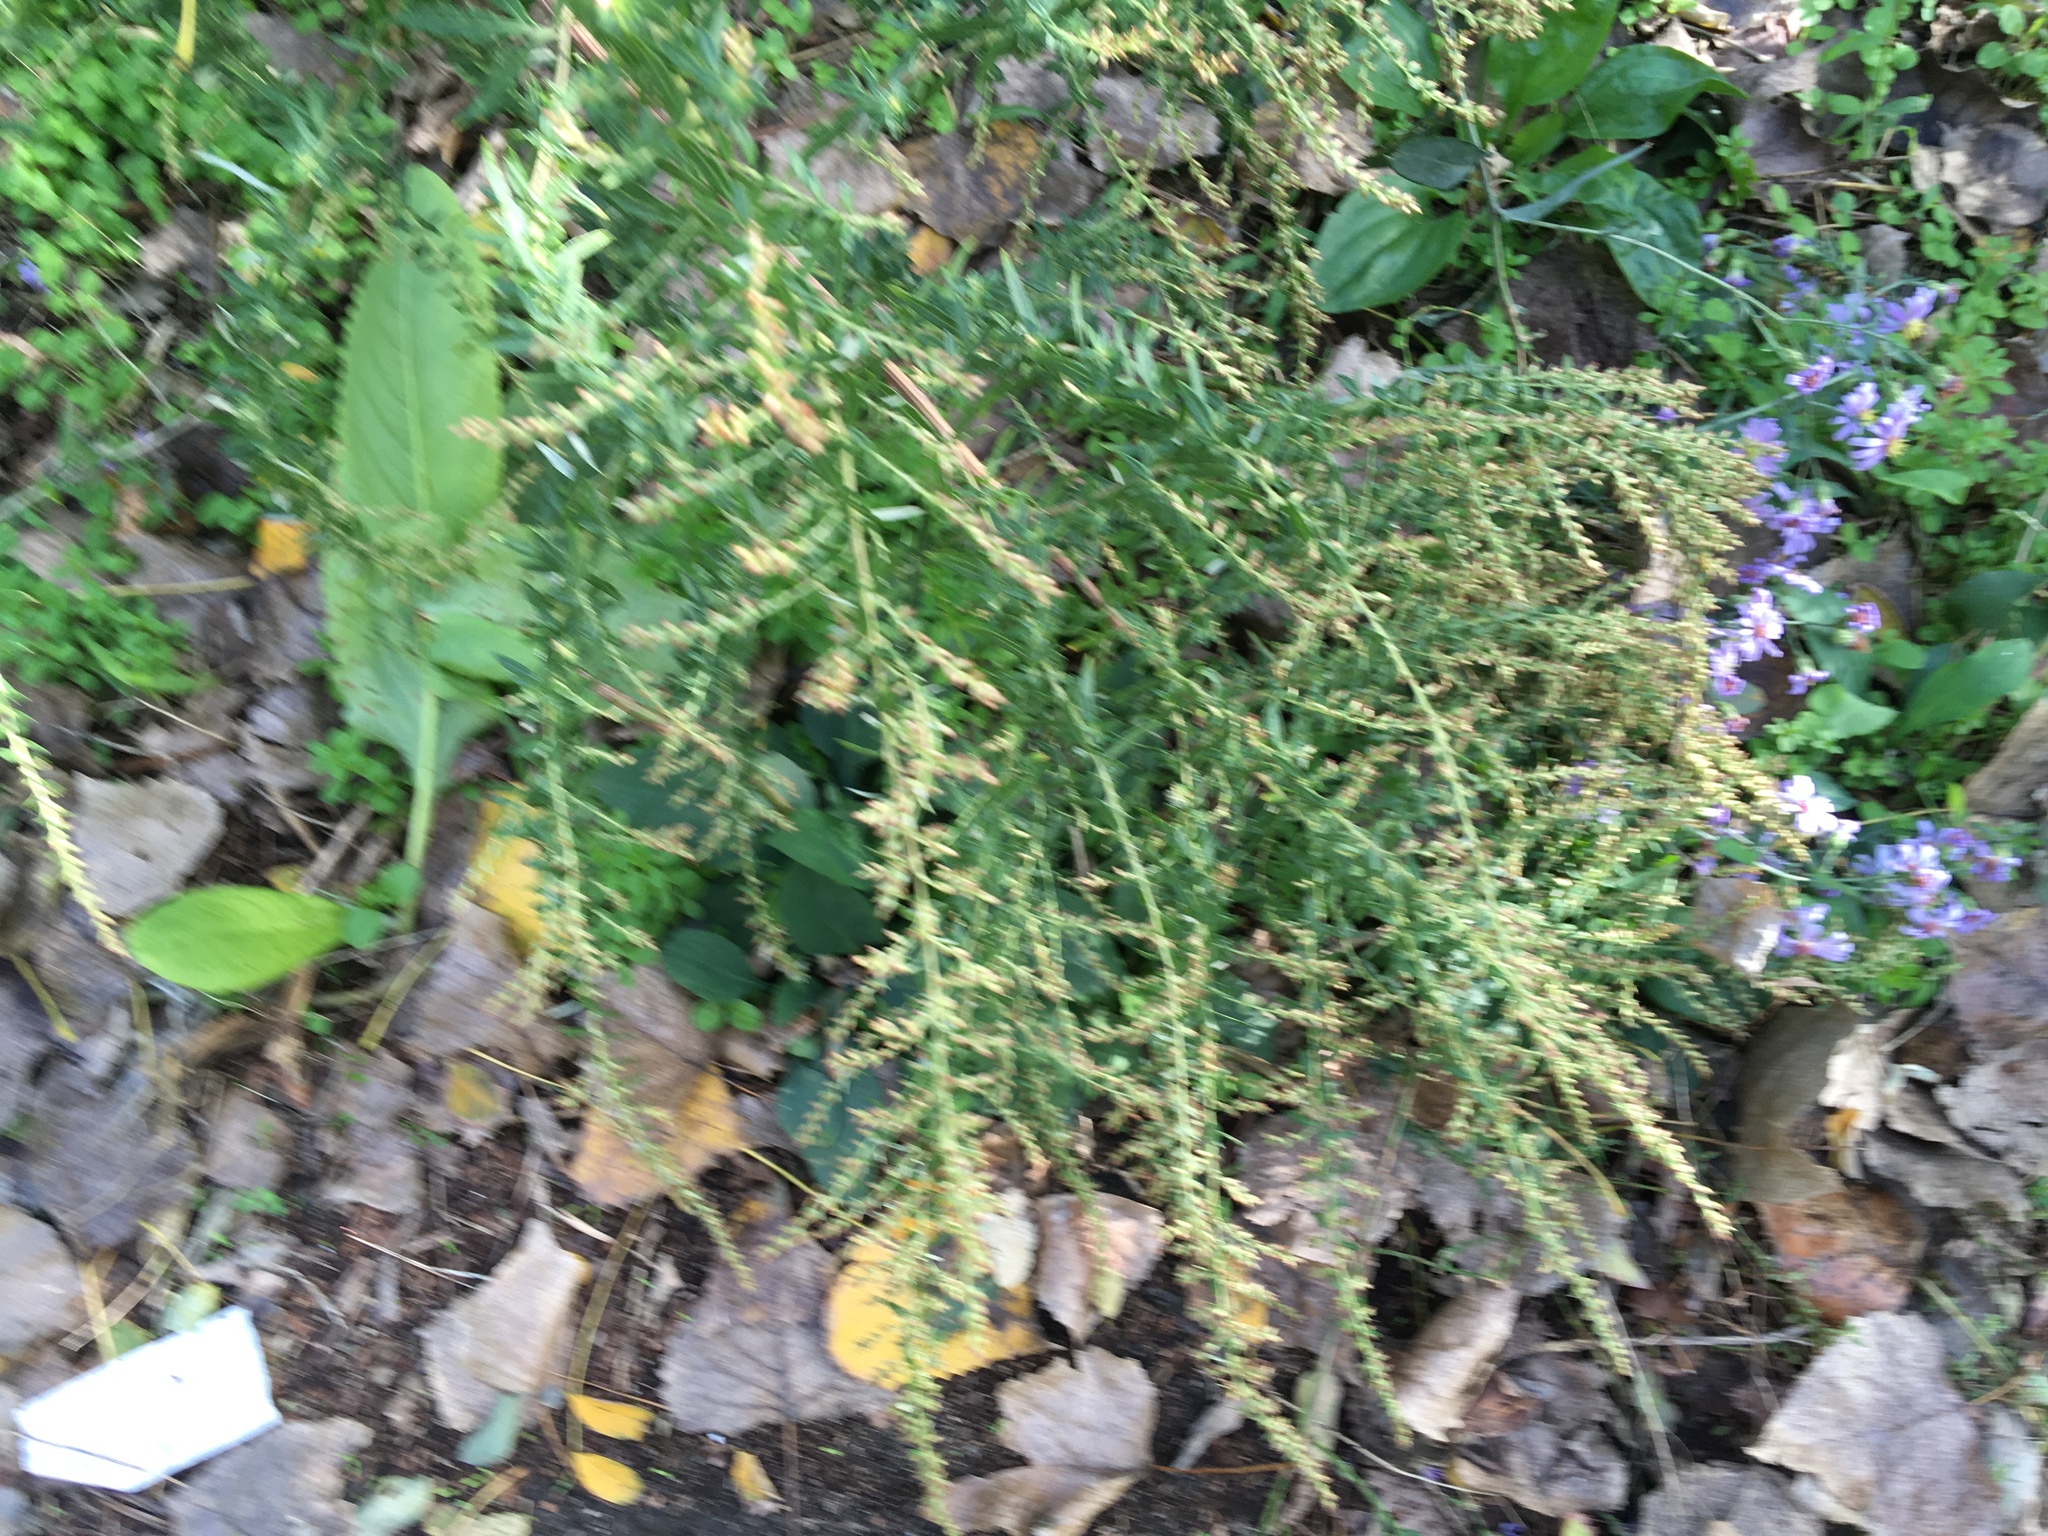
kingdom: Plantae
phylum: Tracheophyta
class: Magnoliopsida
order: Asterales
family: Asteraceae
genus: Artemisia
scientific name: Artemisia vulgaris
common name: Mugwort
